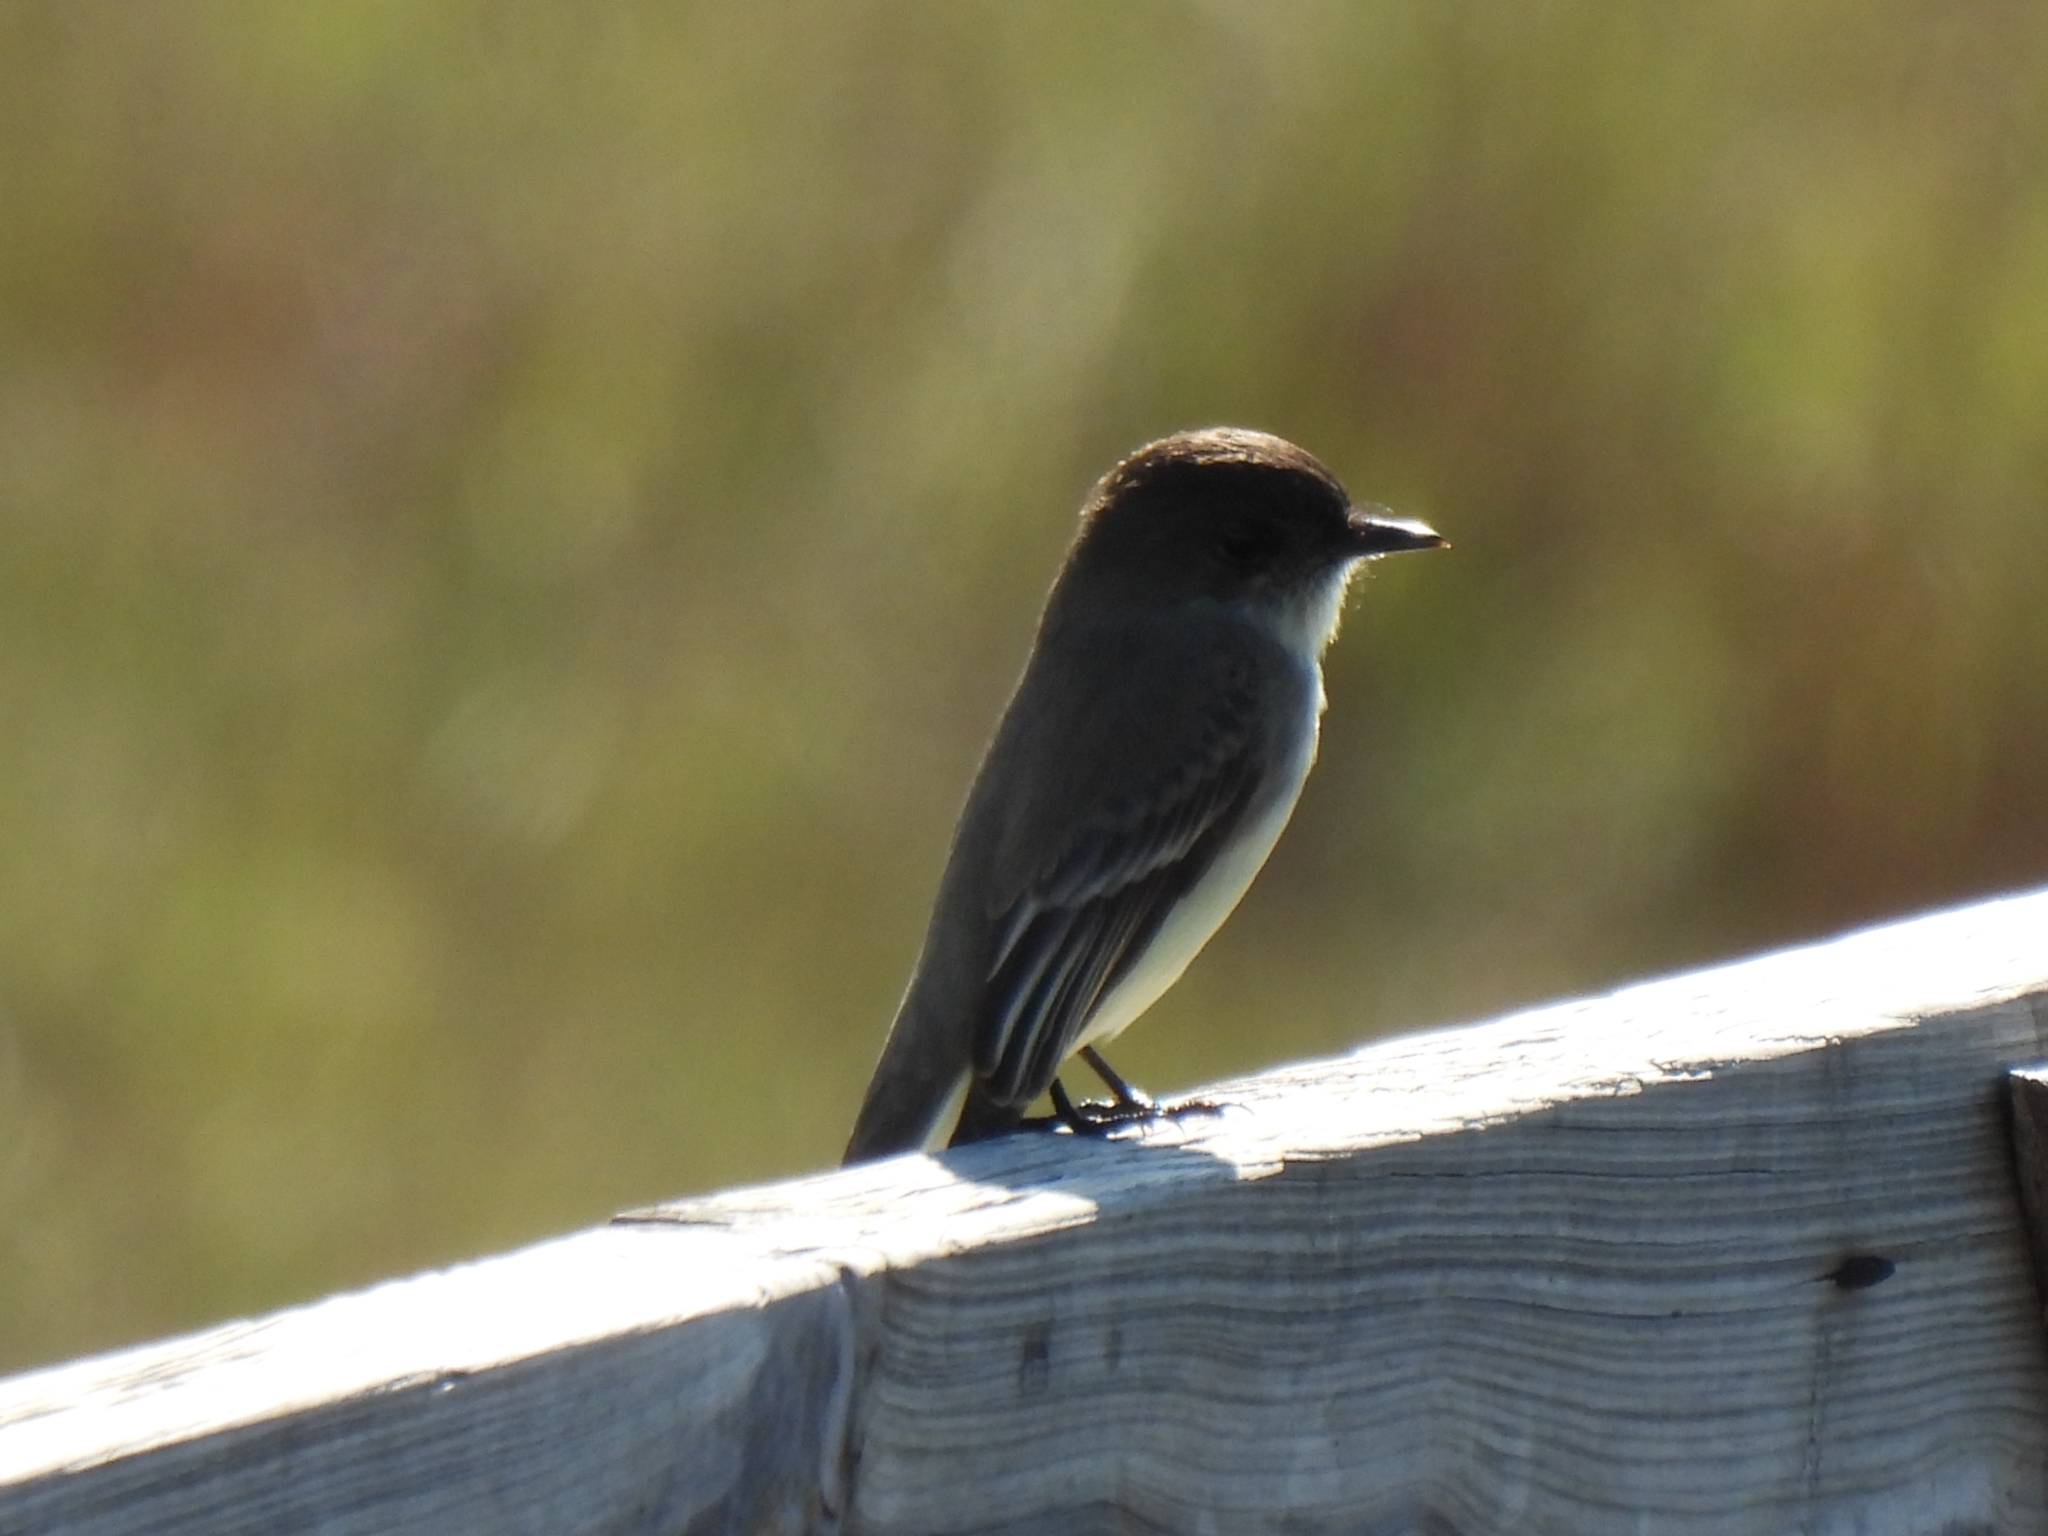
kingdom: Animalia
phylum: Chordata
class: Aves
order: Passeriformes
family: Tyrannidae
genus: Sayornis
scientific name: Sayornis phoebe
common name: Eastern phoebe
